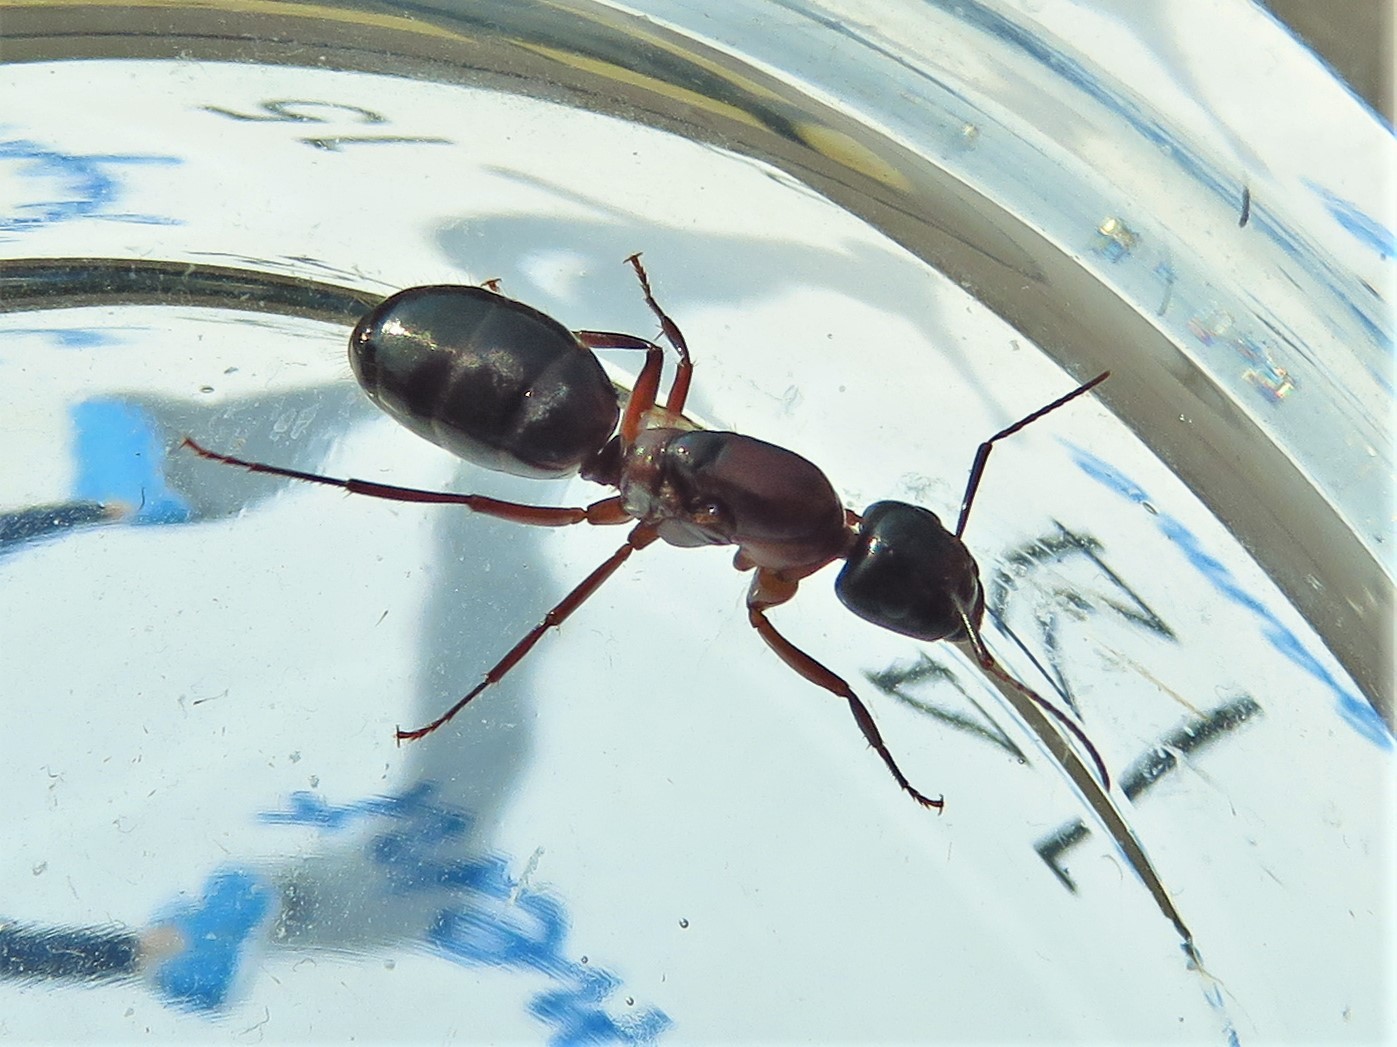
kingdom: Animalia
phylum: Arthropoda
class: Insecta
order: Hymenoptera
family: Formicidae
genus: Camponotus
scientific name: Camponotus texanus
